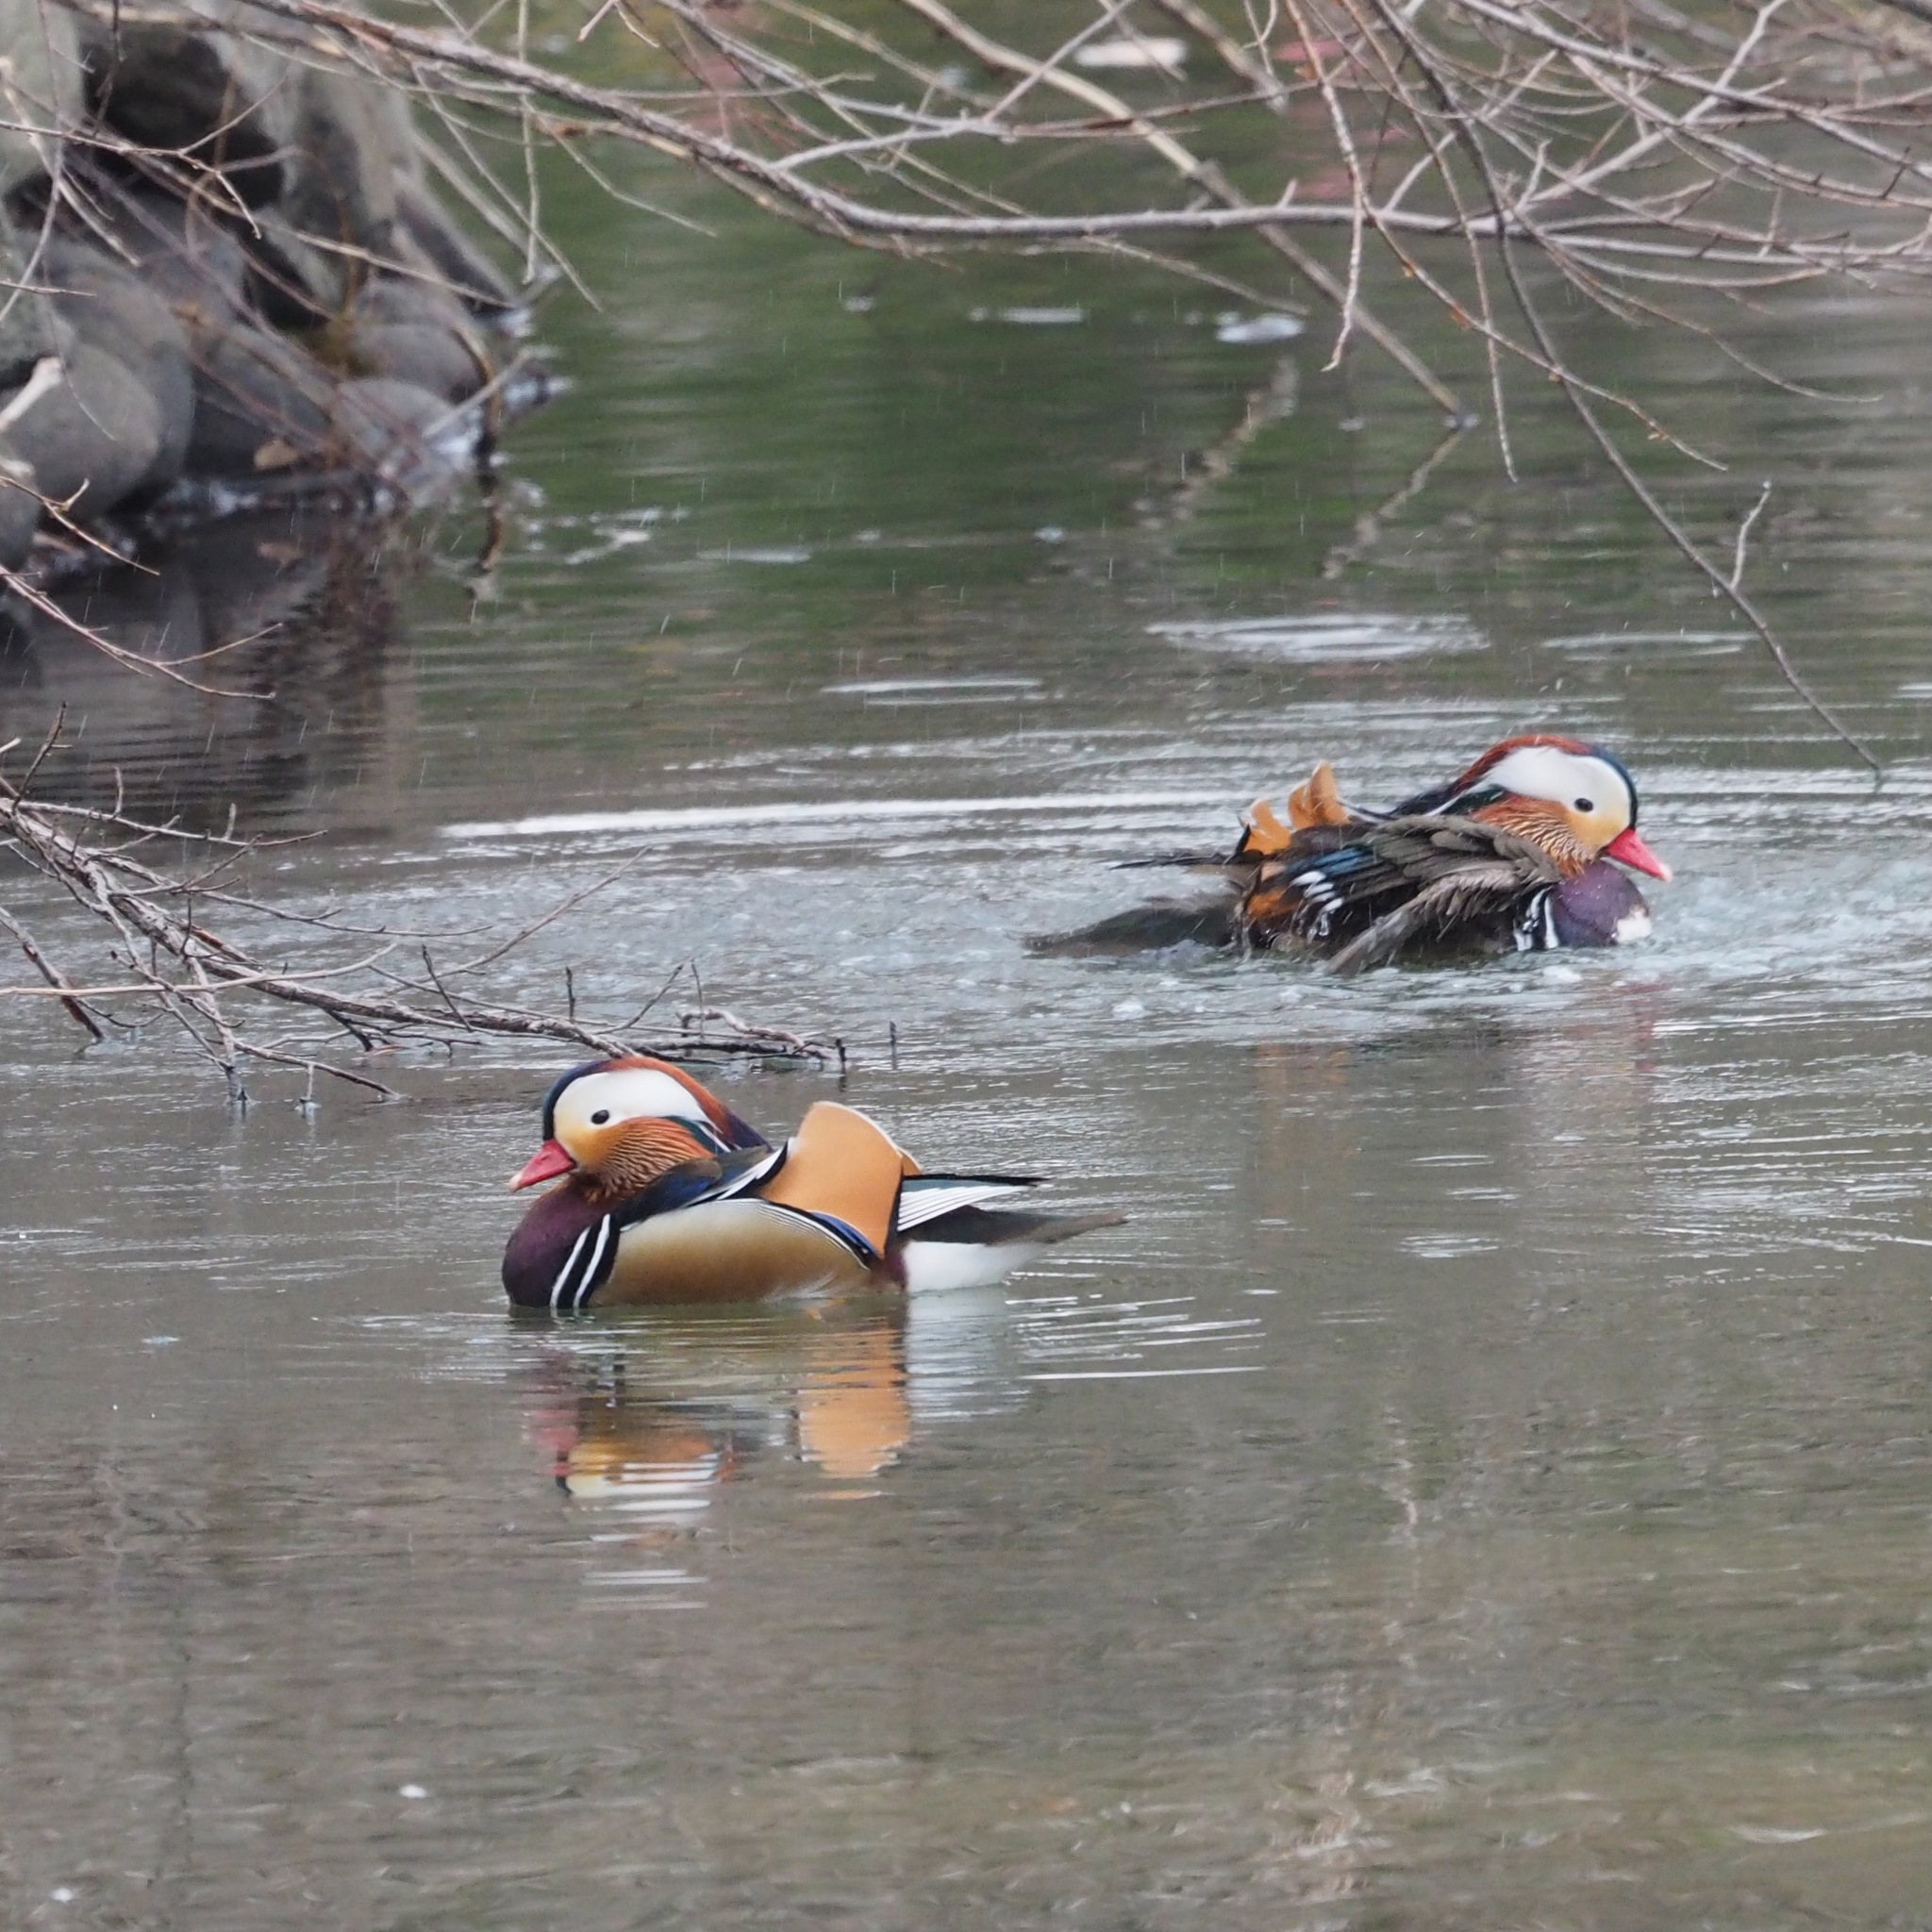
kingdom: Animalia
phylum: Chordata
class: Aves
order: Anseriformes
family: Anatidae
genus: Aix
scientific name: Aix galericulata
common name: Mandarin duck
